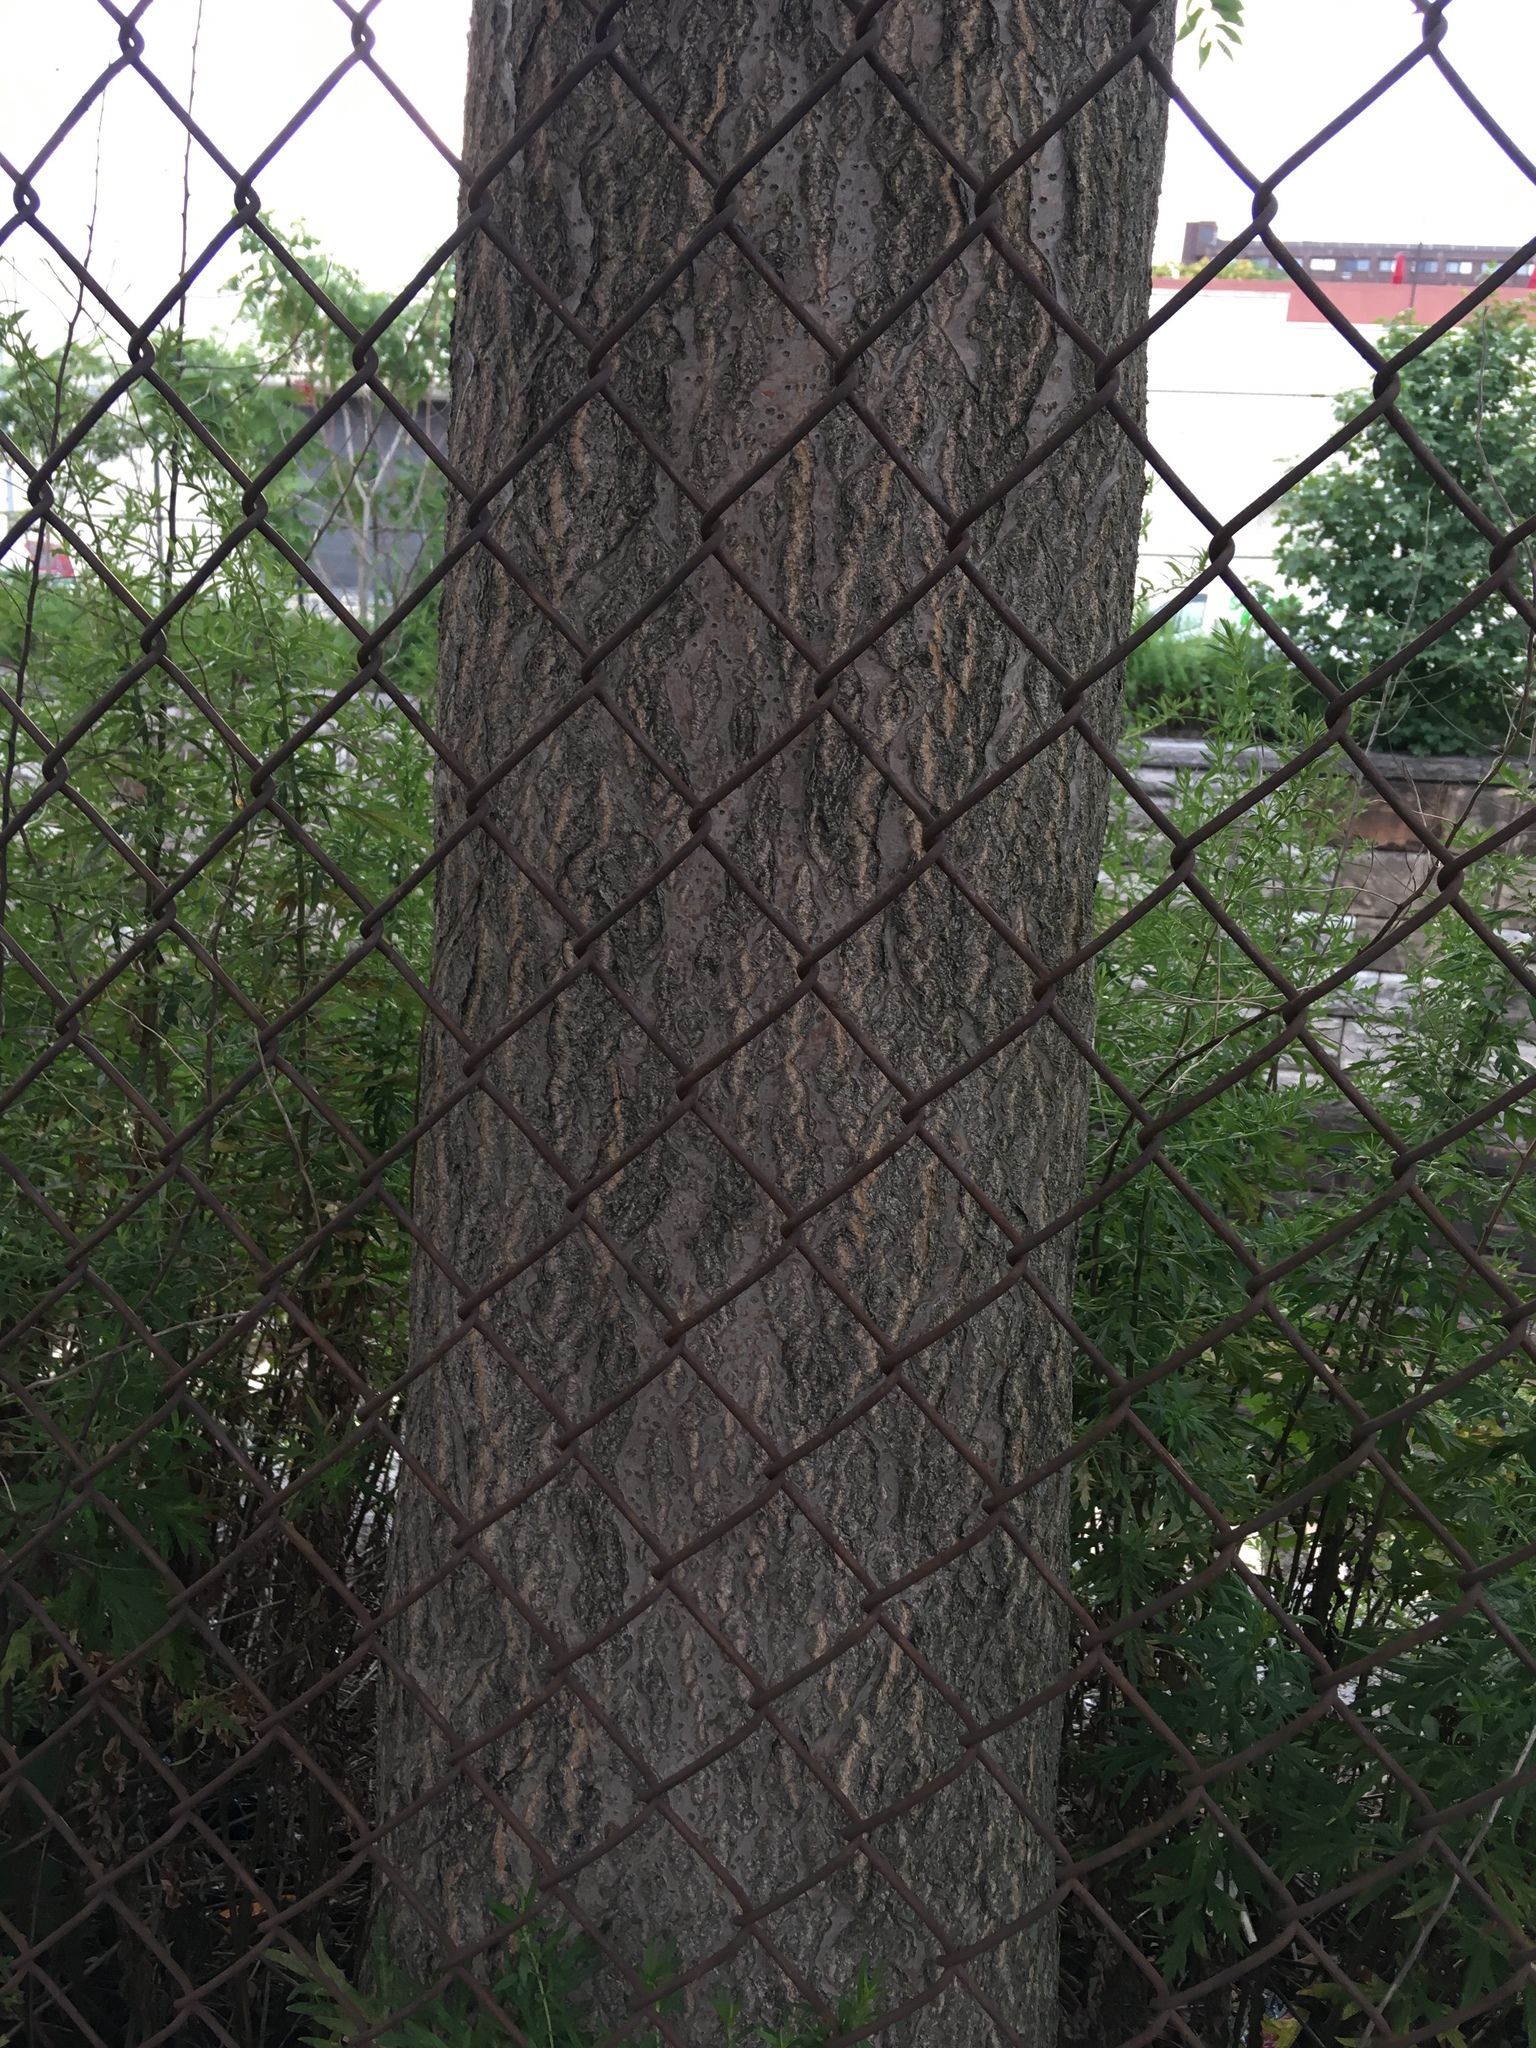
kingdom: Plantae
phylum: Tracheophyta
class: Magnoliopsida
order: Sapindales
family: Simaroubaceae
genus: Ailanthus
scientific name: Ailanthus altissima
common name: Tree-of-heaven
